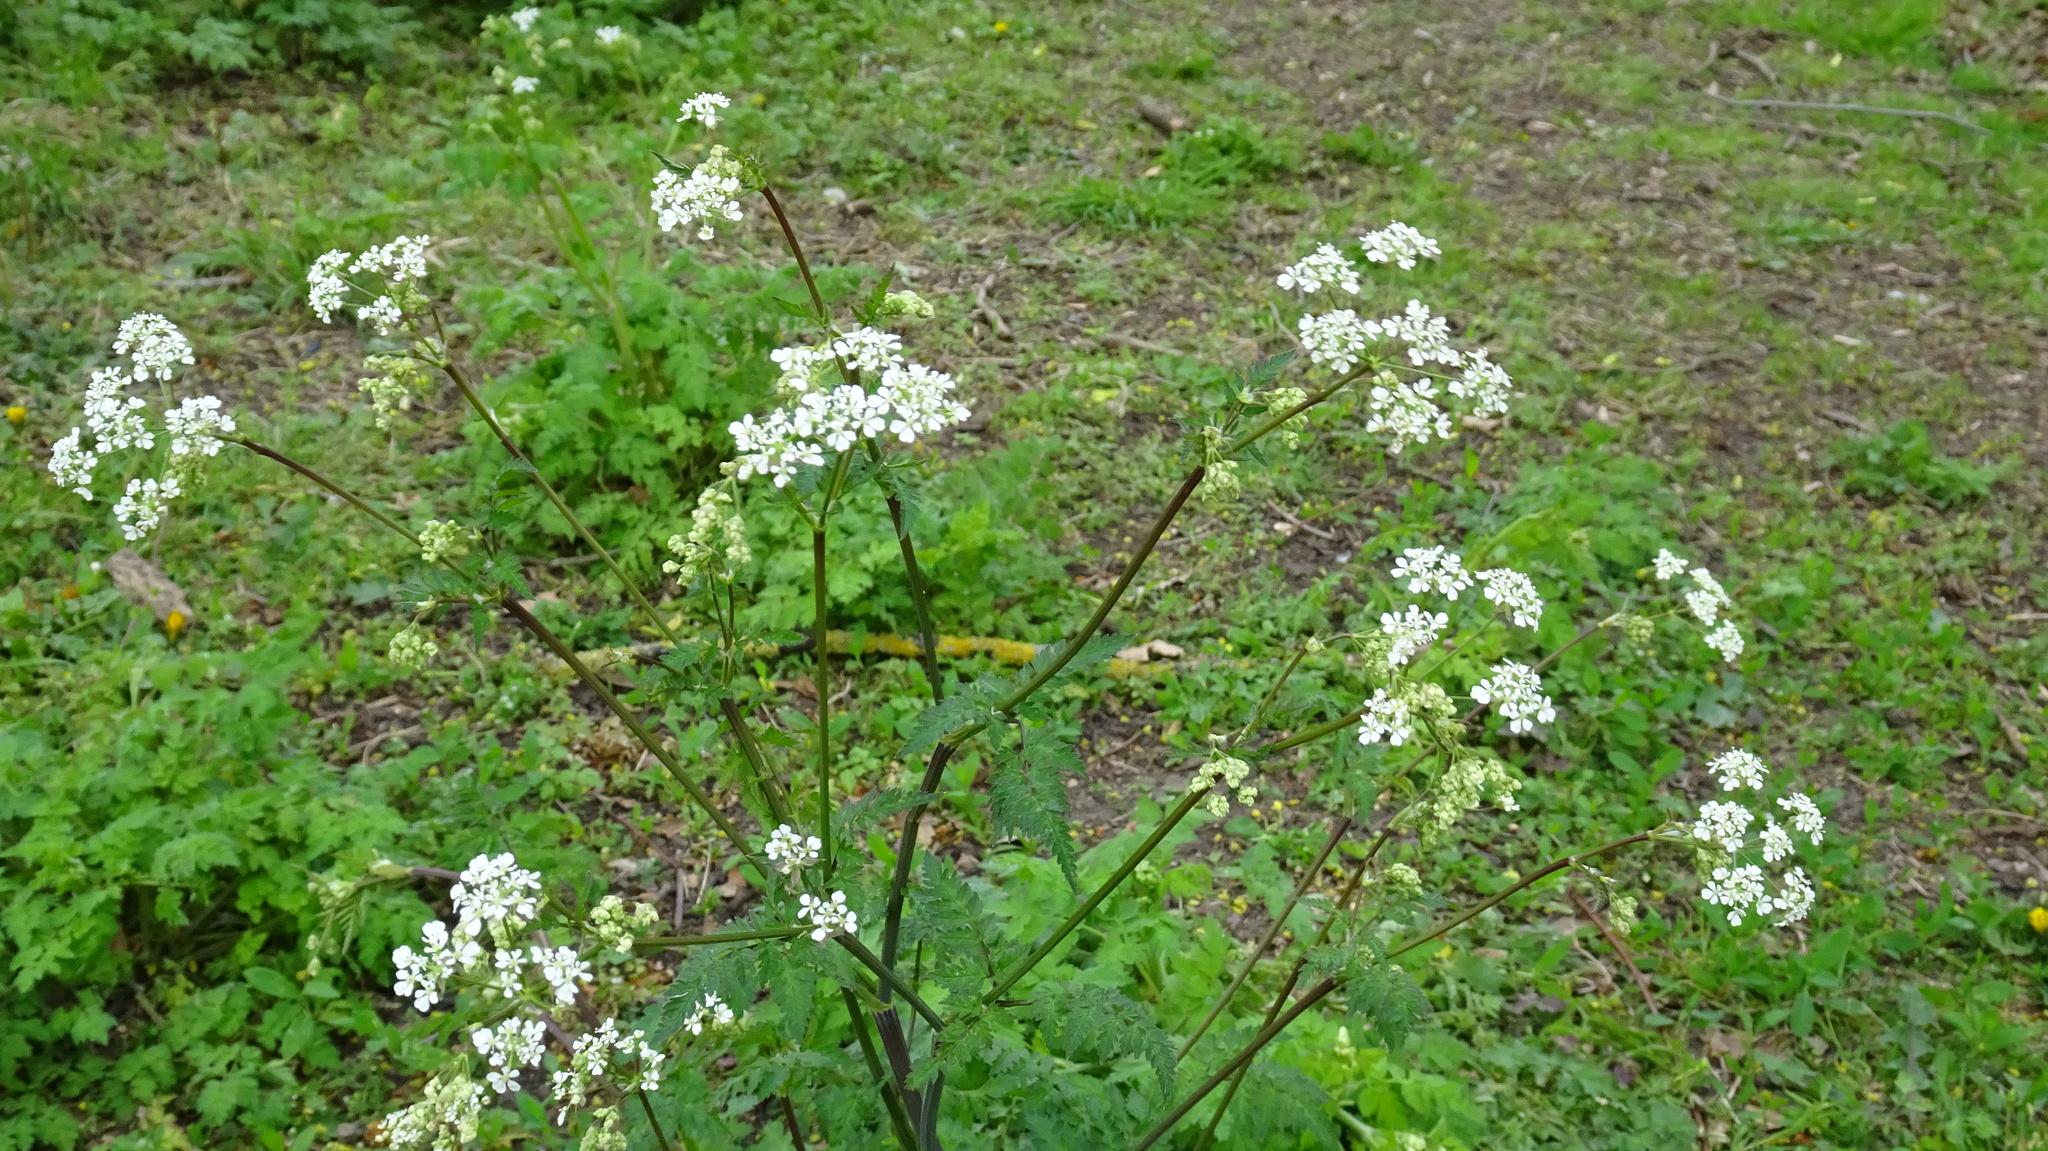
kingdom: Plantae
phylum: Tracheophyta
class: Magnoliopsida
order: Apiales
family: Apiaceae
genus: Anthriscus
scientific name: Anthriscus sylvestris
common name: Cow parsley
